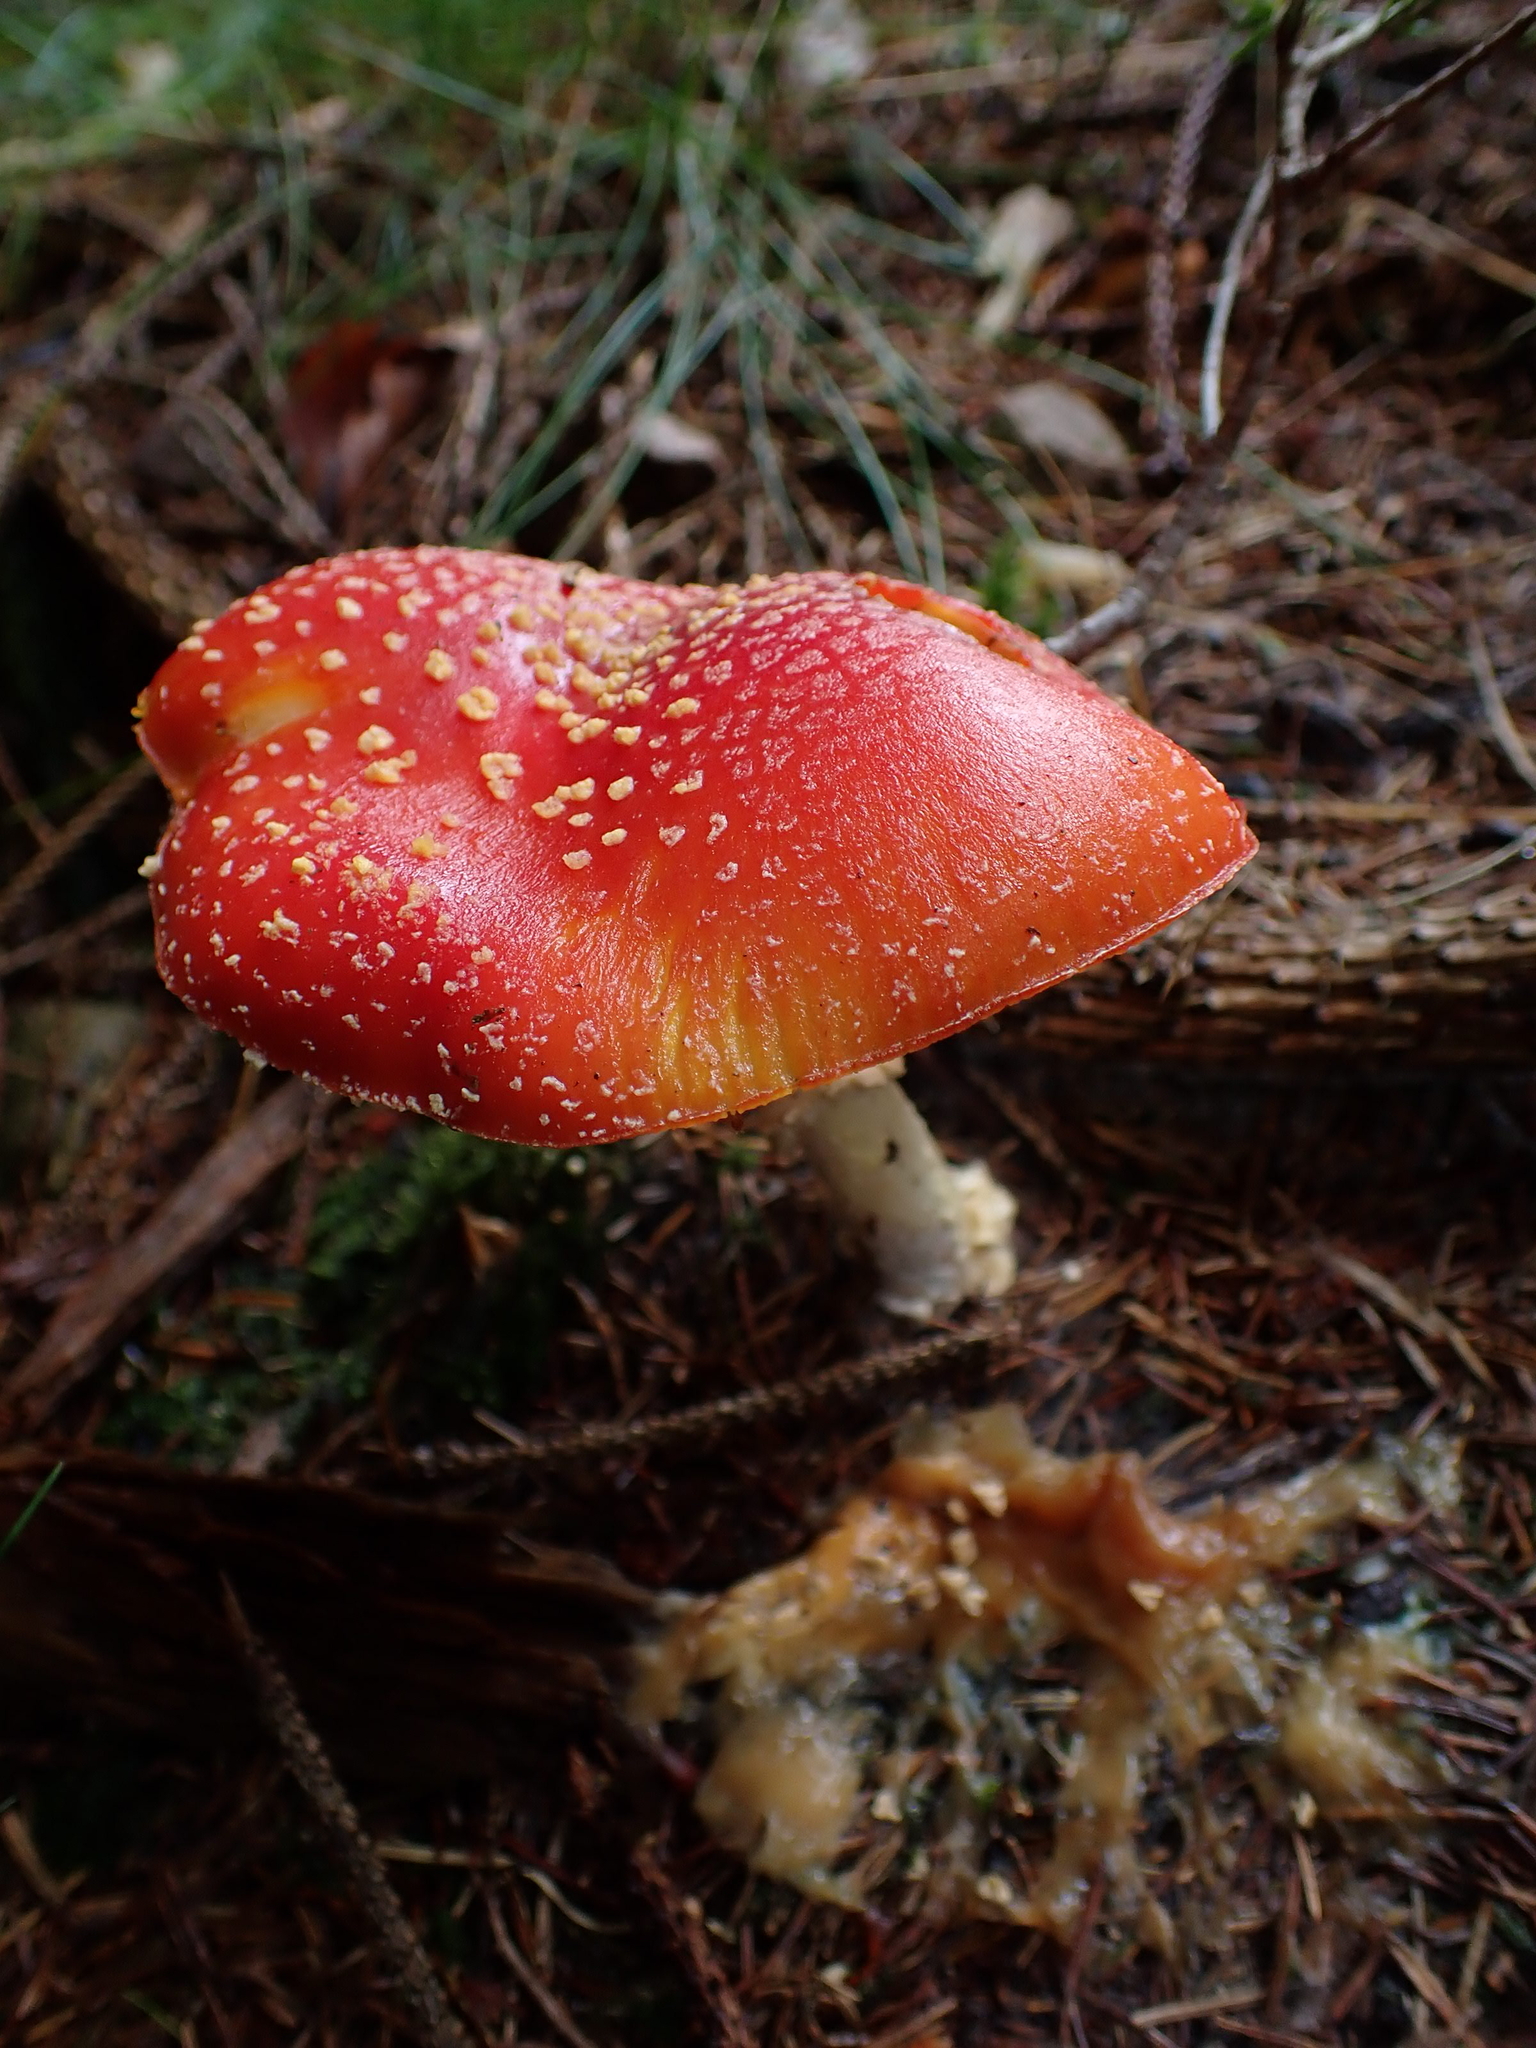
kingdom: Fungi
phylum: Basidiomycota
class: Agaricomycetes
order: Agaricales
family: Amanitaceae
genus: Amanita
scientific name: Amanita muscaria
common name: Fly agaric
